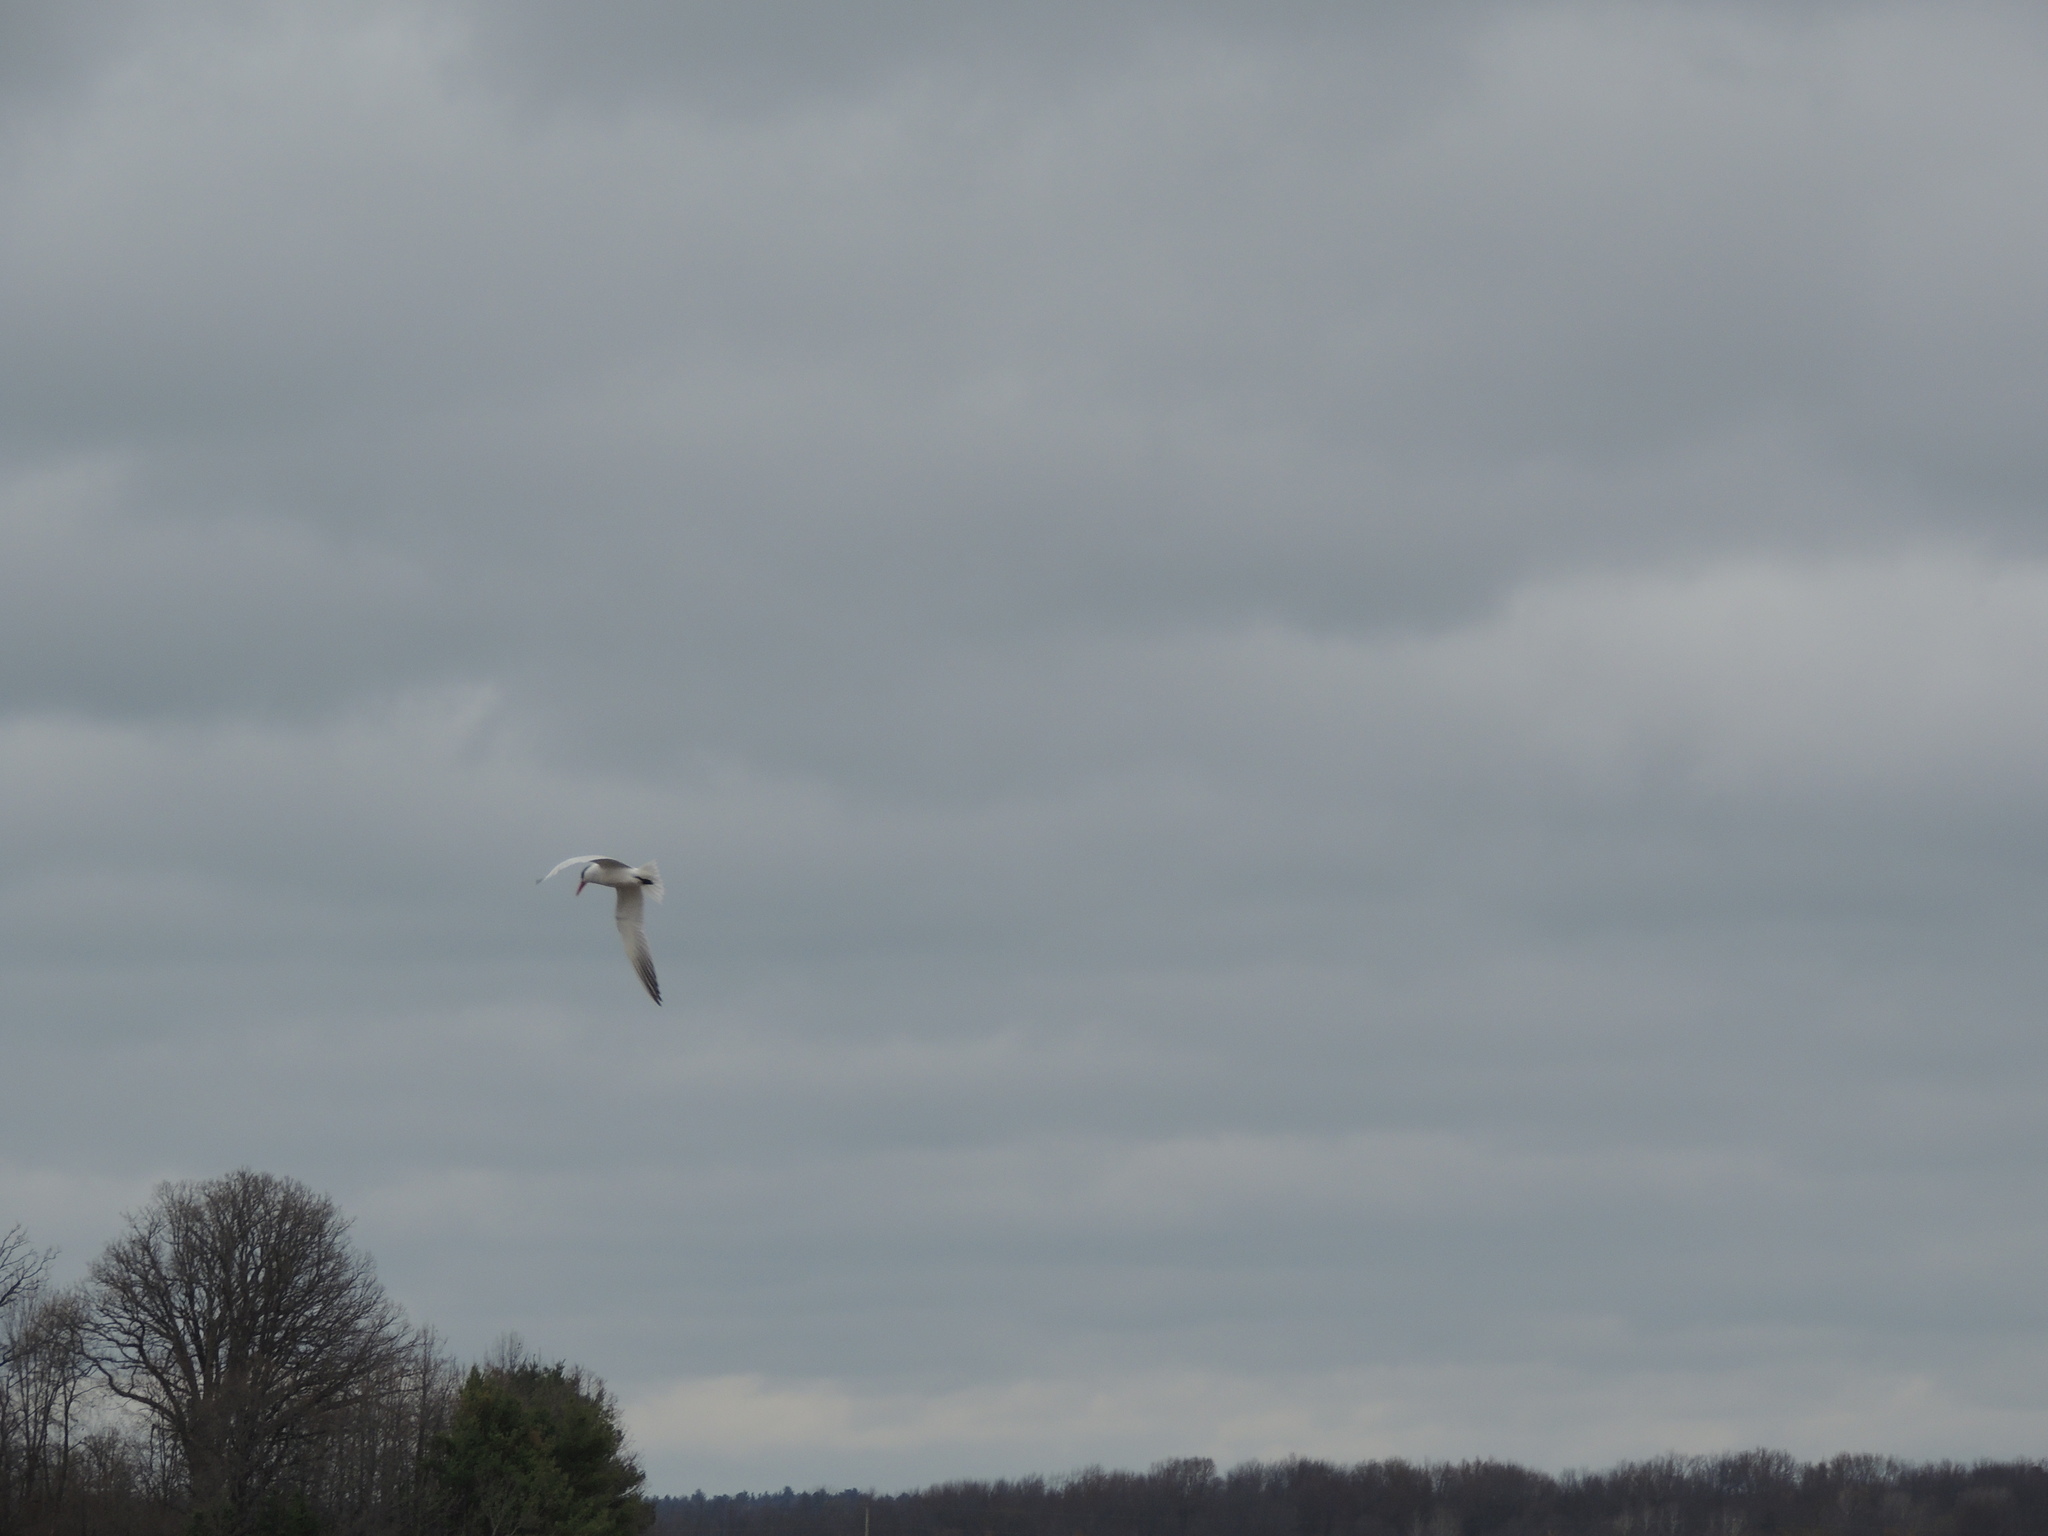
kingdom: Animalia
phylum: Chordata
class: Aves
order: Charadriiformes
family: Laridae
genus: Hydroprogne
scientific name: Hydroprogne caspia
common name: Caspian tern
